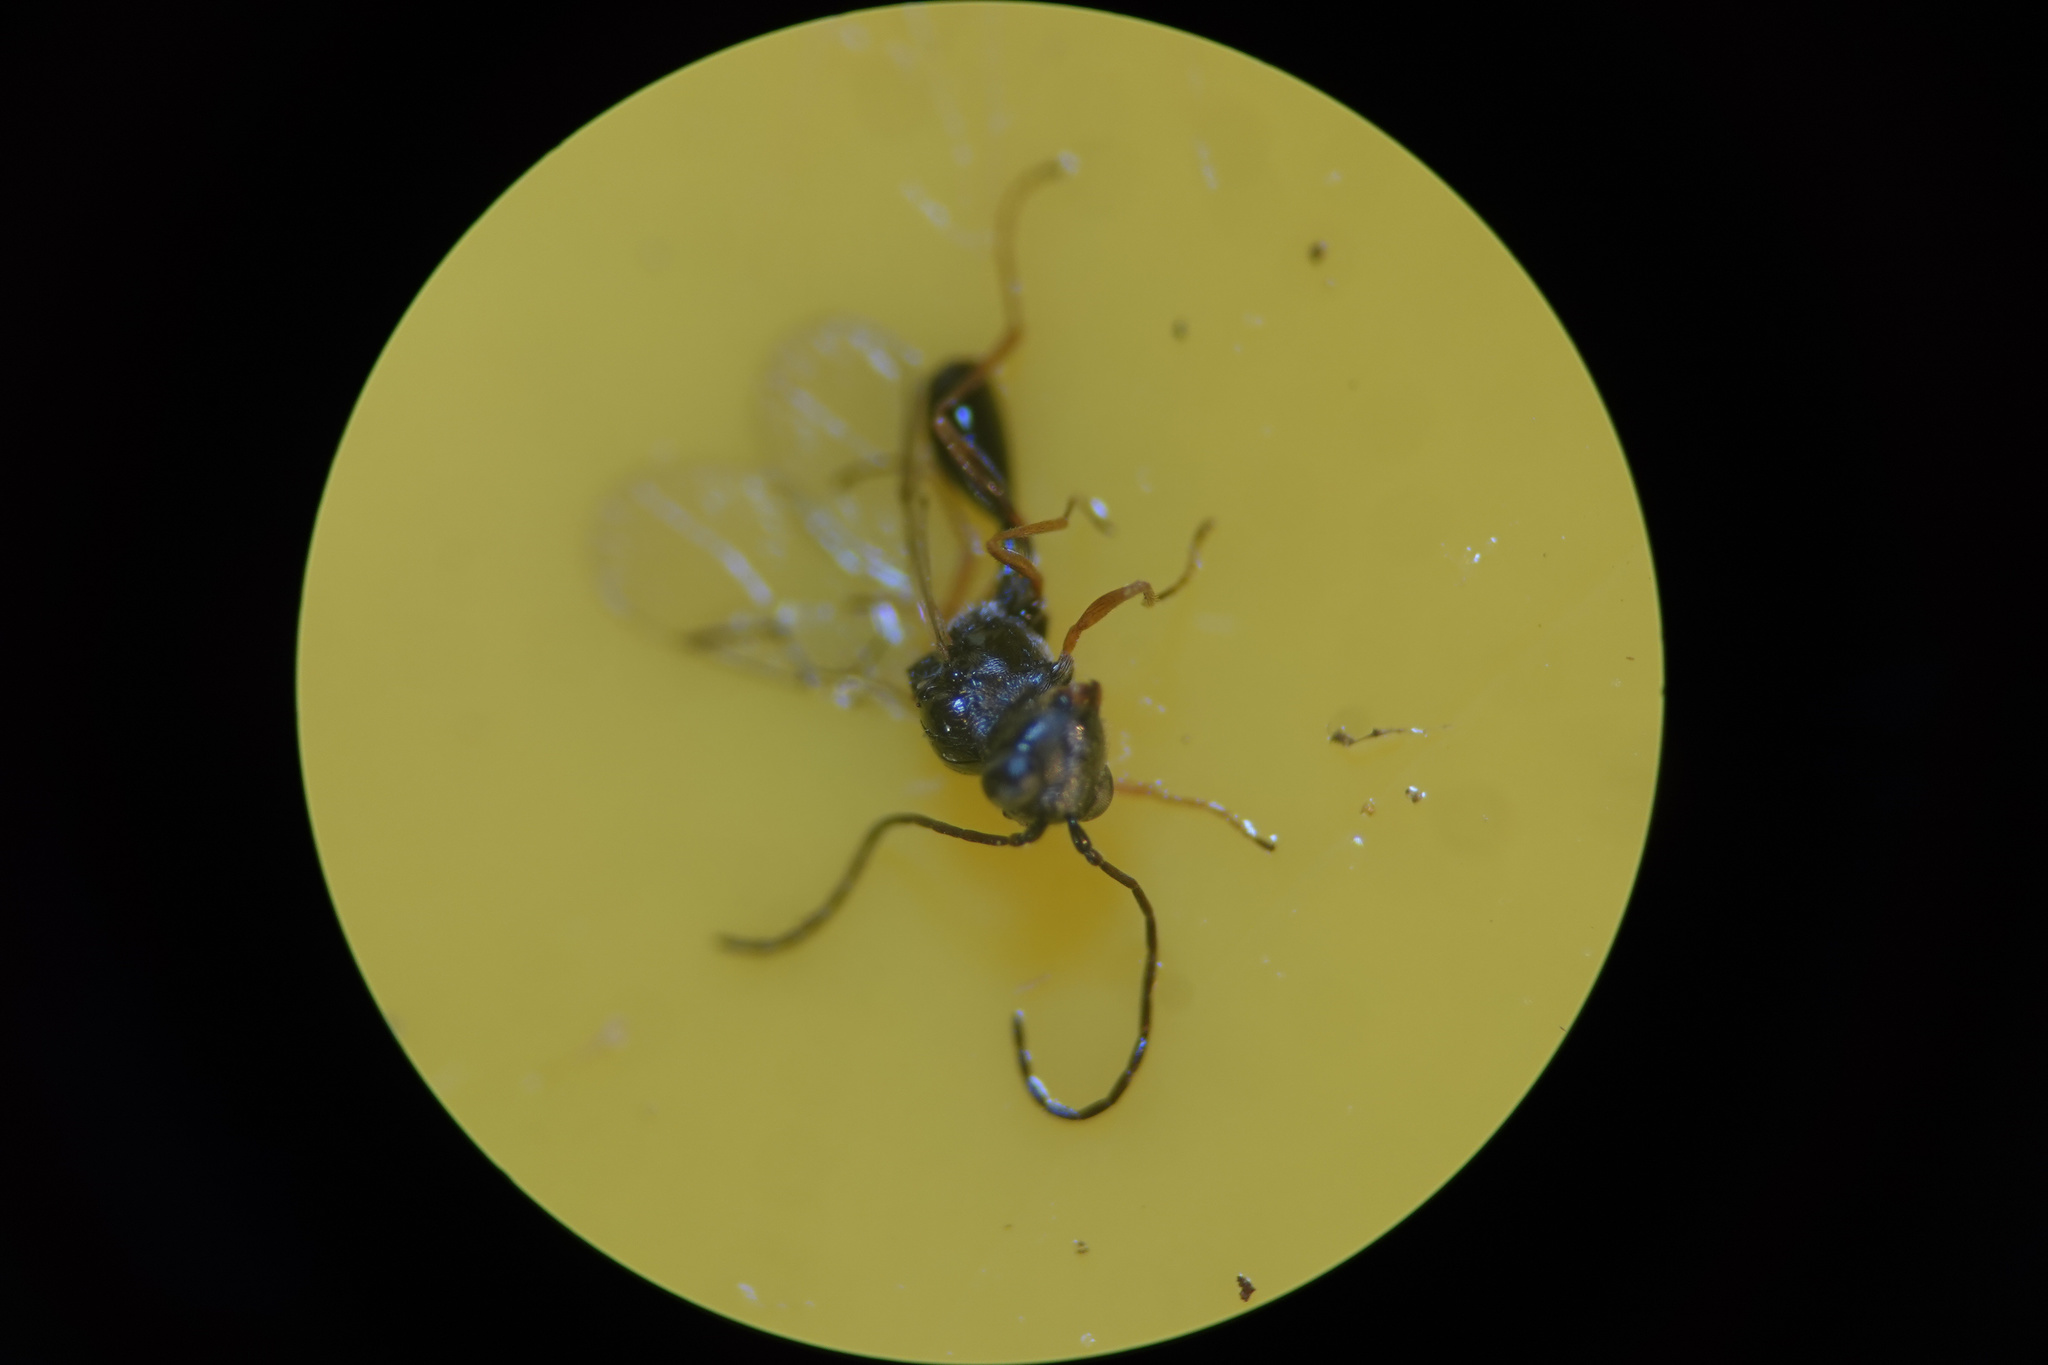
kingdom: Animalia
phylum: Arthropoda
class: Insecta
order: Hymenoptera
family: Figitidae
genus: Anacharis
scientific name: Anacharis zealandica
